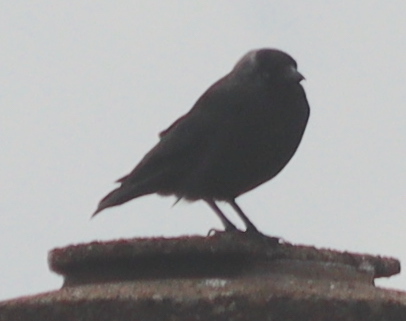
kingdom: Animalia
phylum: Chordata
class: Aves
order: Passeriformes
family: Corvidae
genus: Coloeus
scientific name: Coloeus monedula
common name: Western jackdaw
